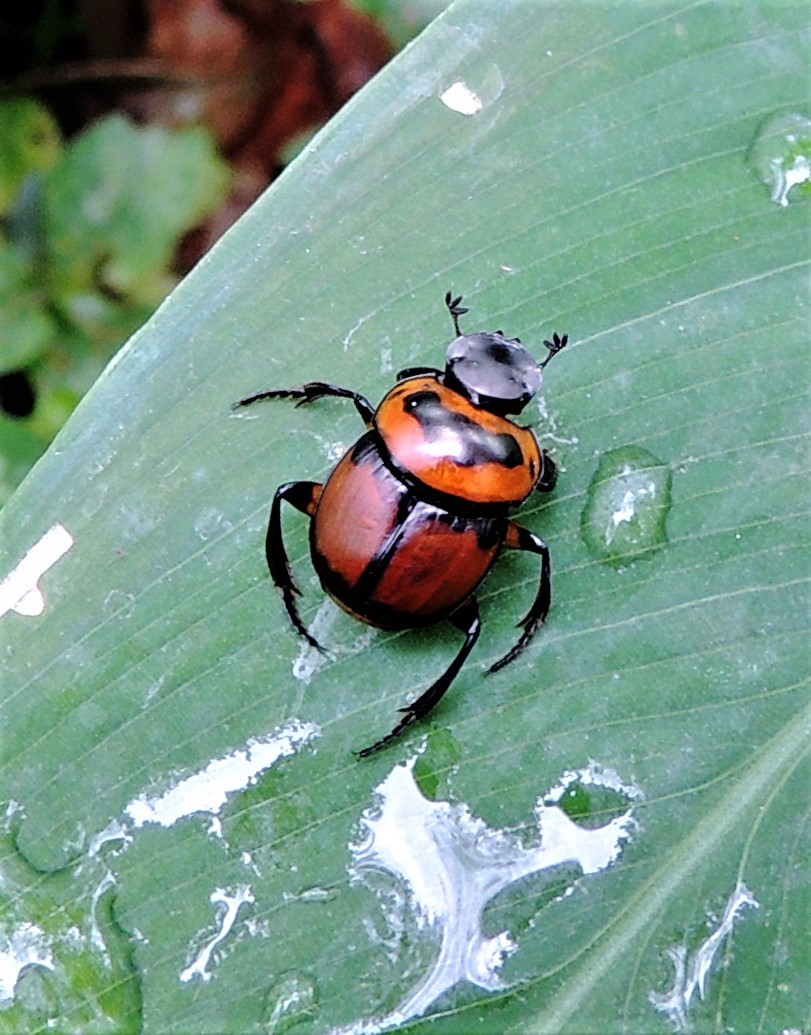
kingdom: Animalia
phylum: Arthropoda
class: Insecta
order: Coleoptera
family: Scarabaeidae
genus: Canthon
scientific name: Canthon histrio
